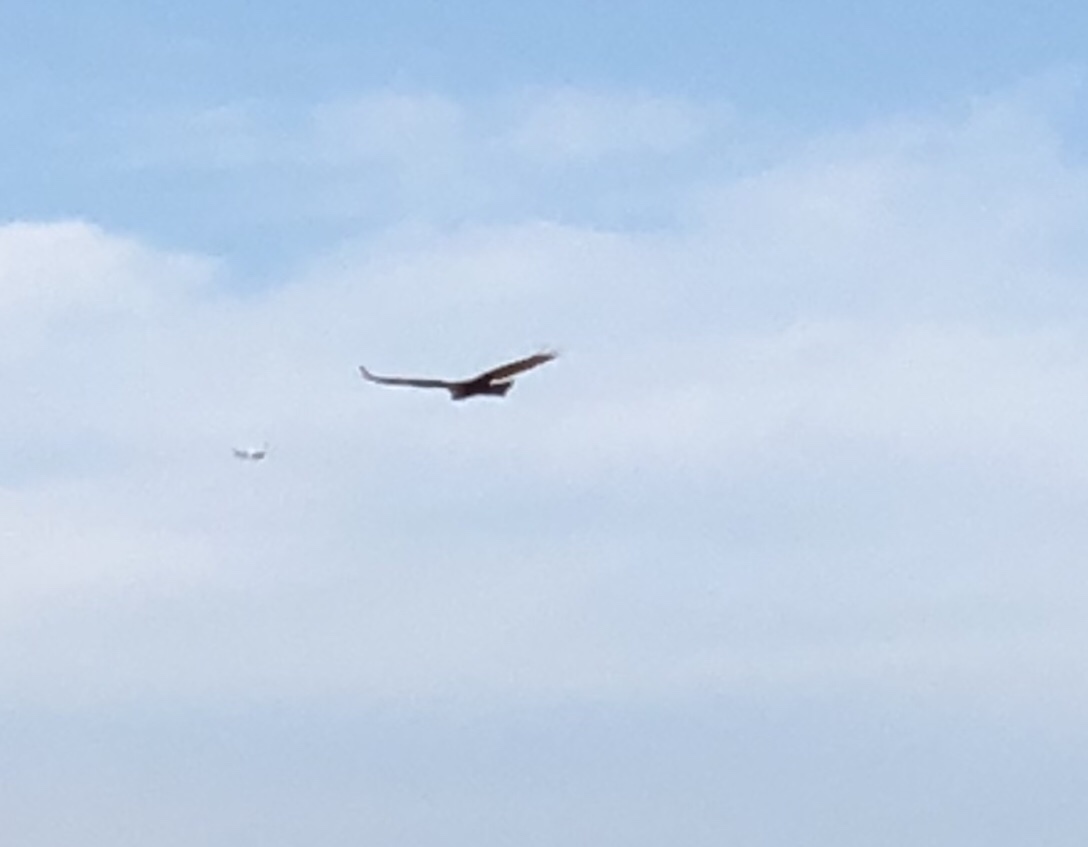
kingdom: Animalia
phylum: Chordata
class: Aves
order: Accipitriformes
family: Cathartidae
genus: Cathartes
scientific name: Cathartes aura
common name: Turkey vulture
